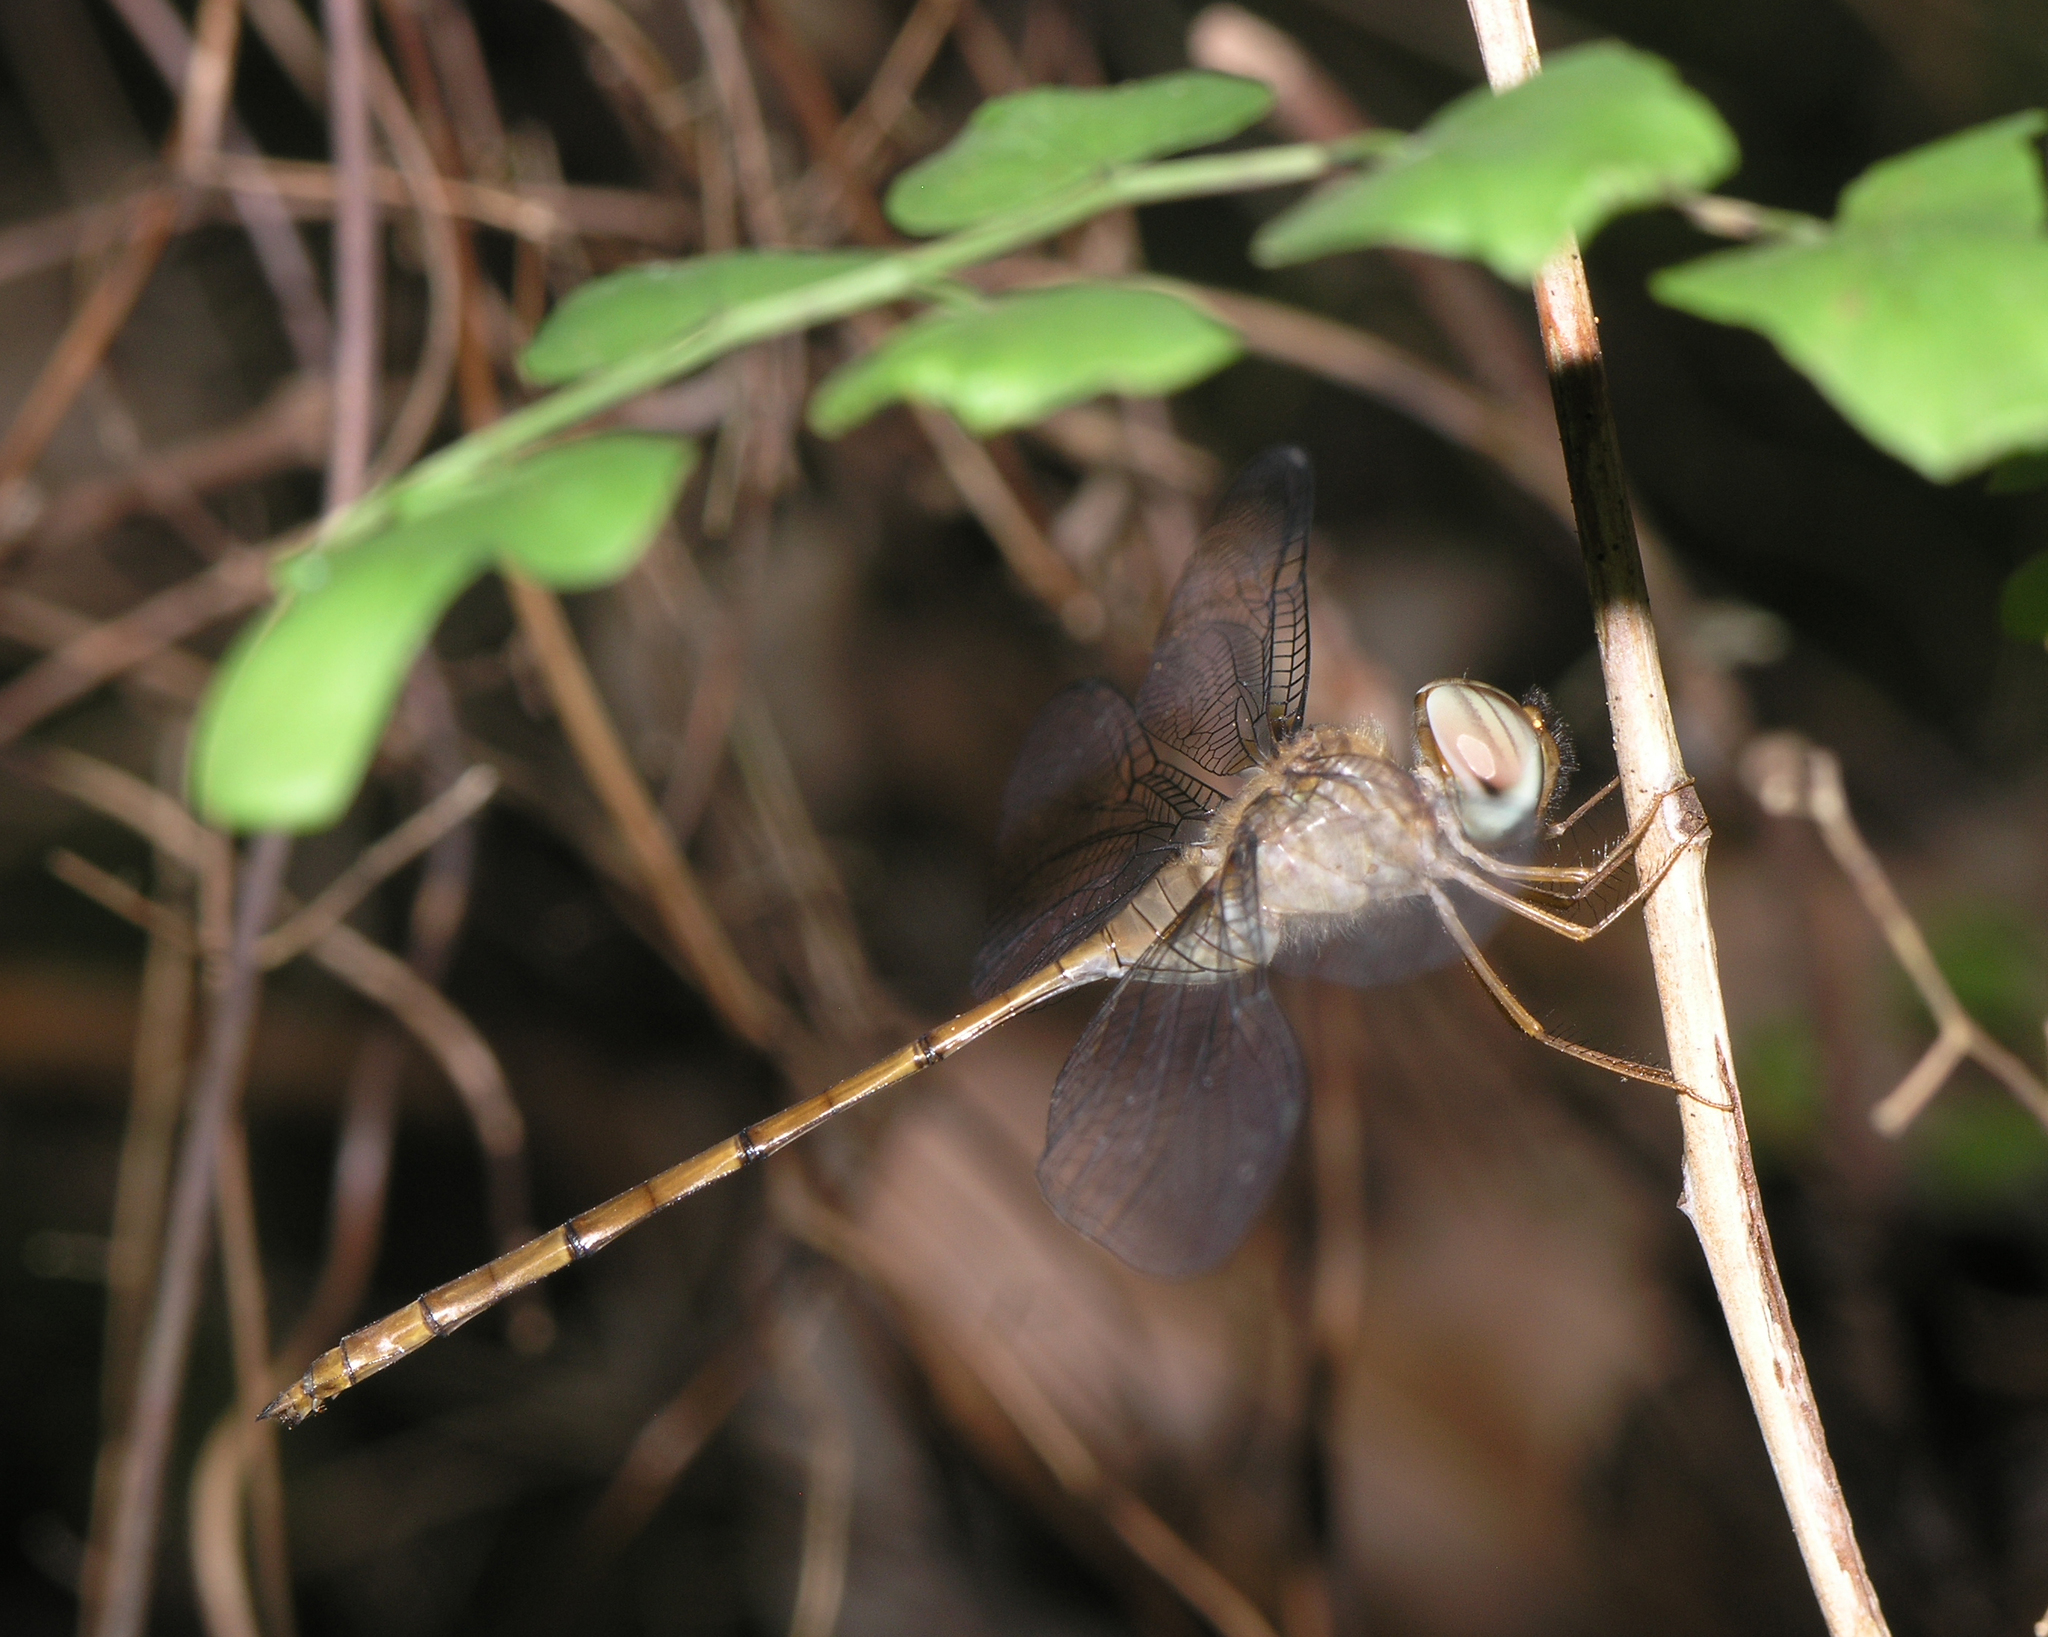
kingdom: Animalia
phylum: Arthropoda
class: Insecta
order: Odonata
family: Libellulidae
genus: Zyxomma
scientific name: Zyxomma petiolatum
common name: Dingy dusk-darter
